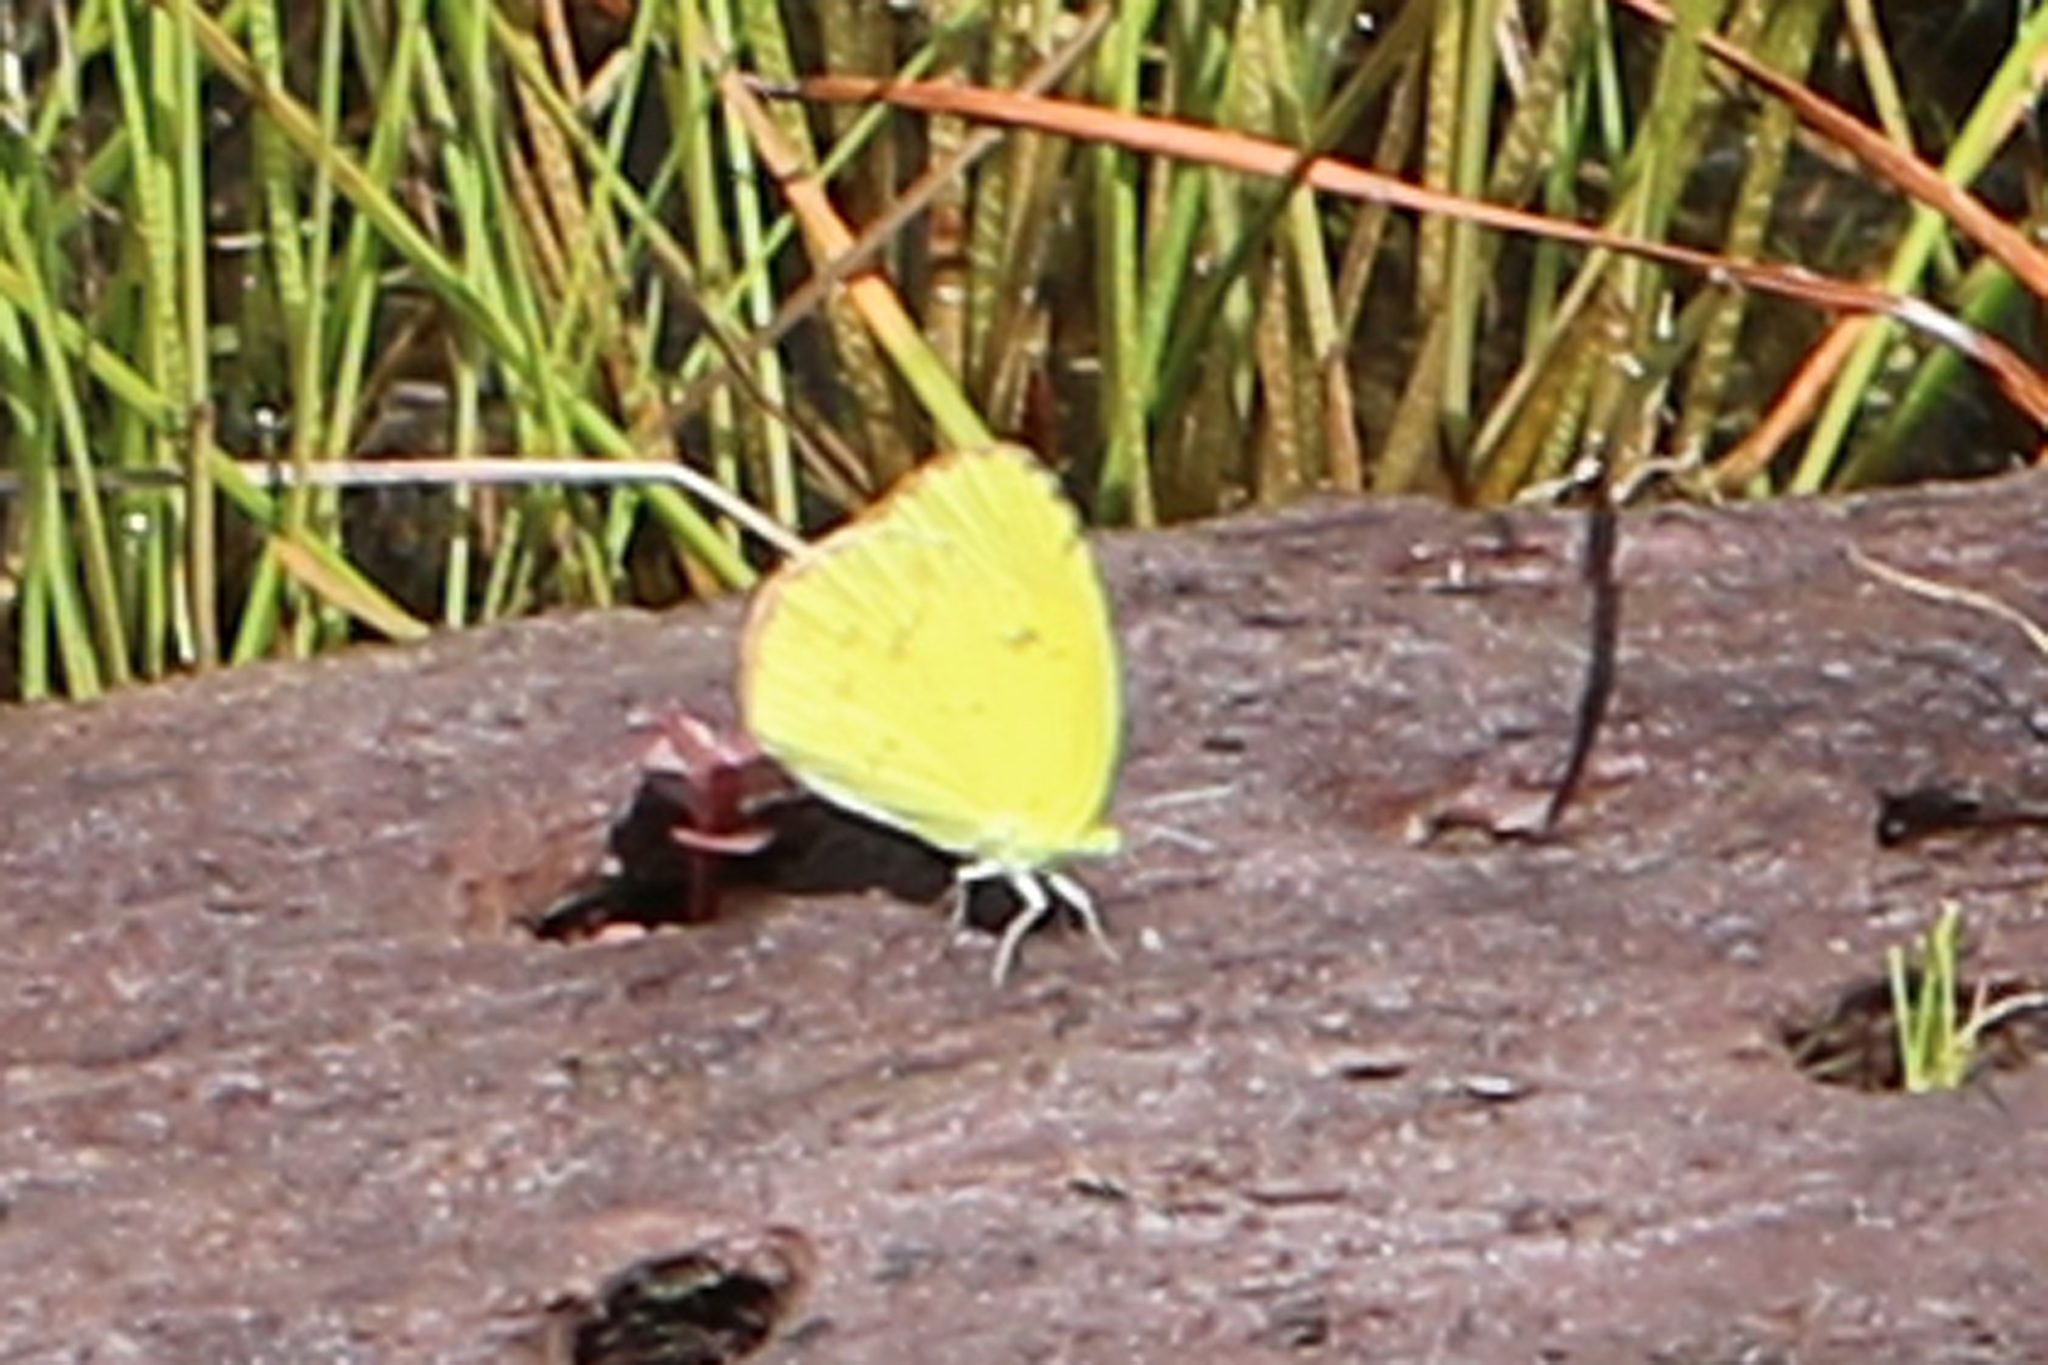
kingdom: Animalia
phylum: Arthropoda
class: Insecta
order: Lepidoptera
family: Pieridae
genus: Pyrisitia
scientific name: Pyrisitia lisa
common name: Little yellow
